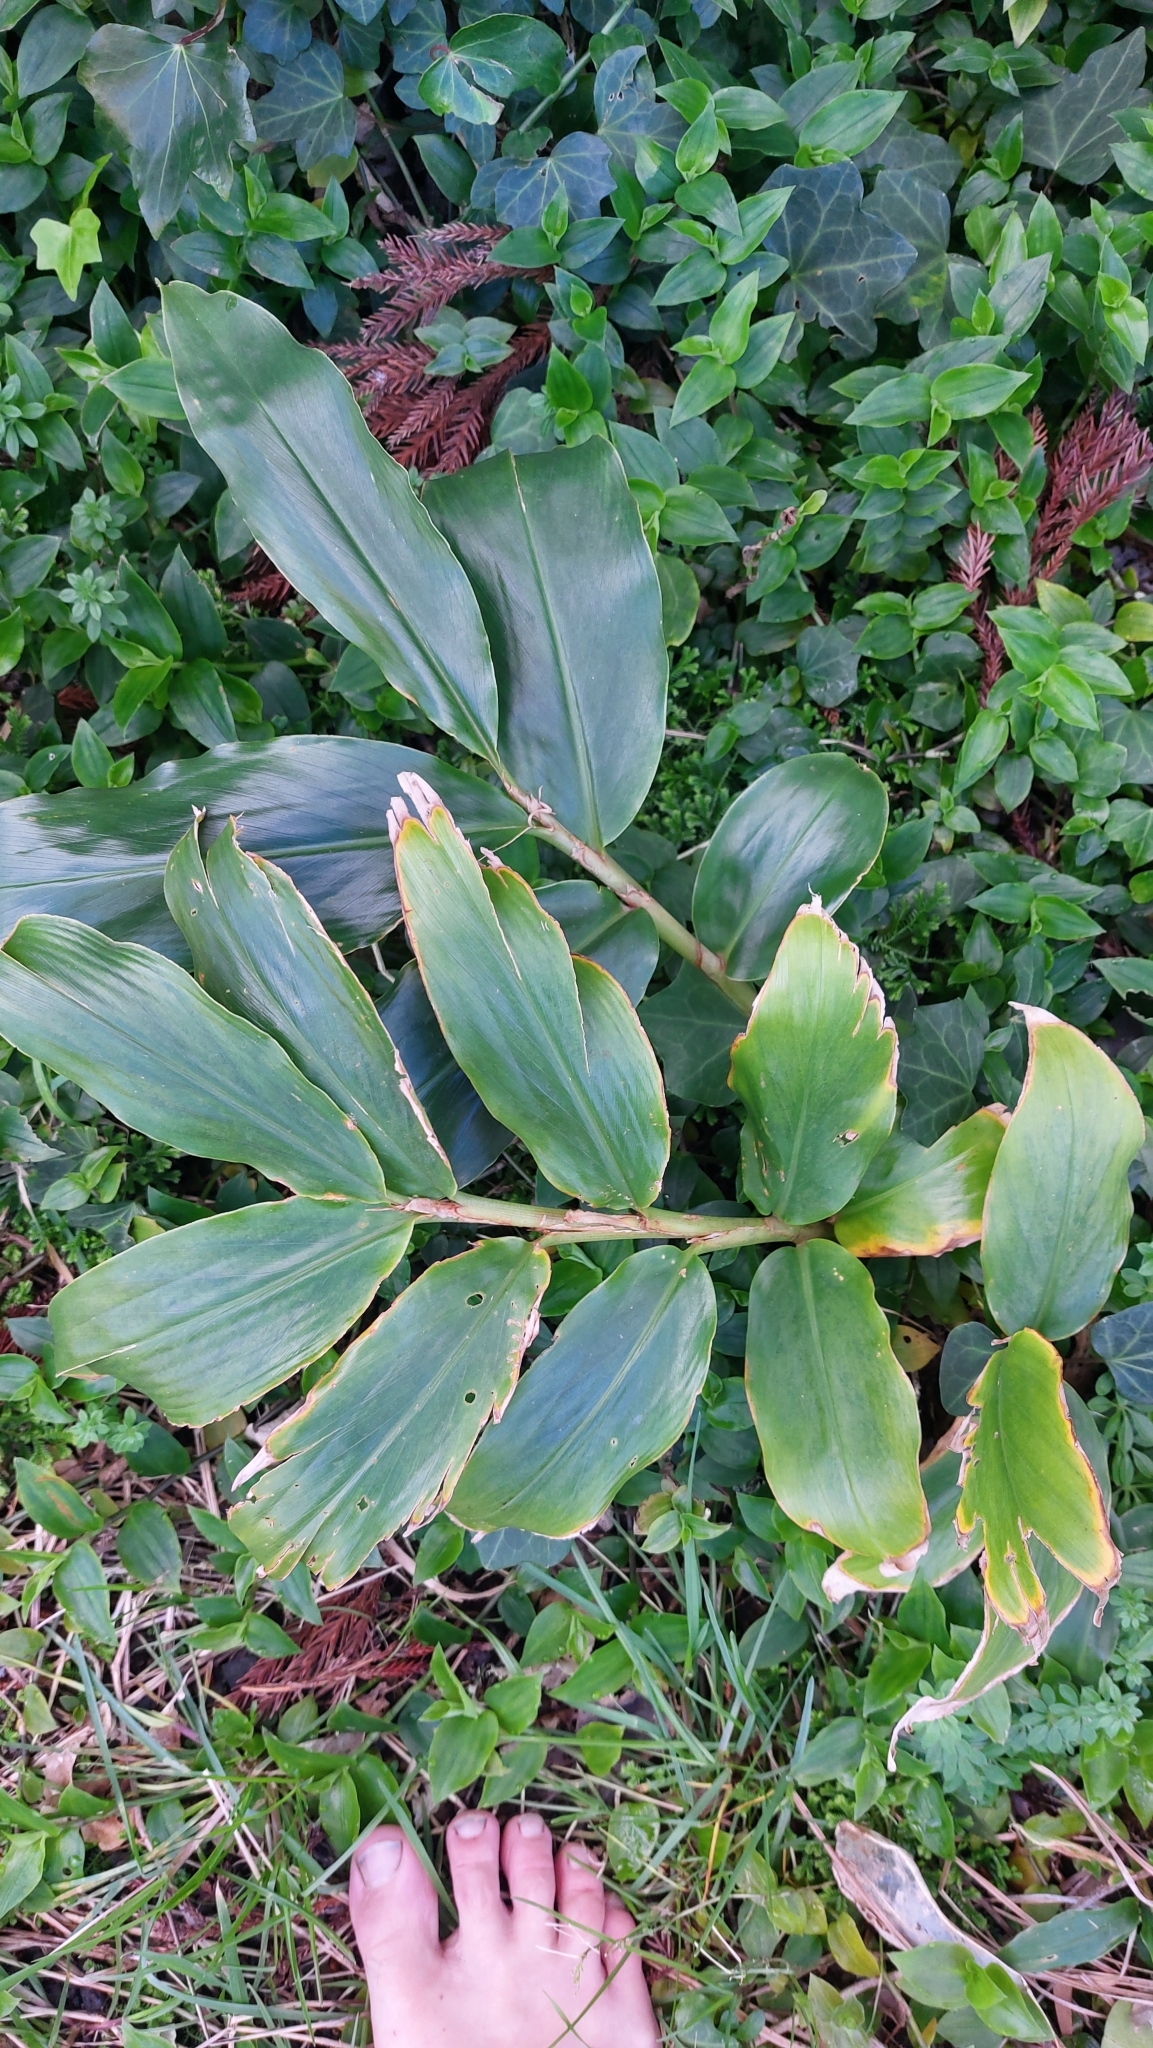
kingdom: Plantae
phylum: Tracheophyta
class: Liliopsida
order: Zingiberales
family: Zingiberaceae
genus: Hedychium
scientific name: Hedychium gardnerianum
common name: Himalayan ginger
